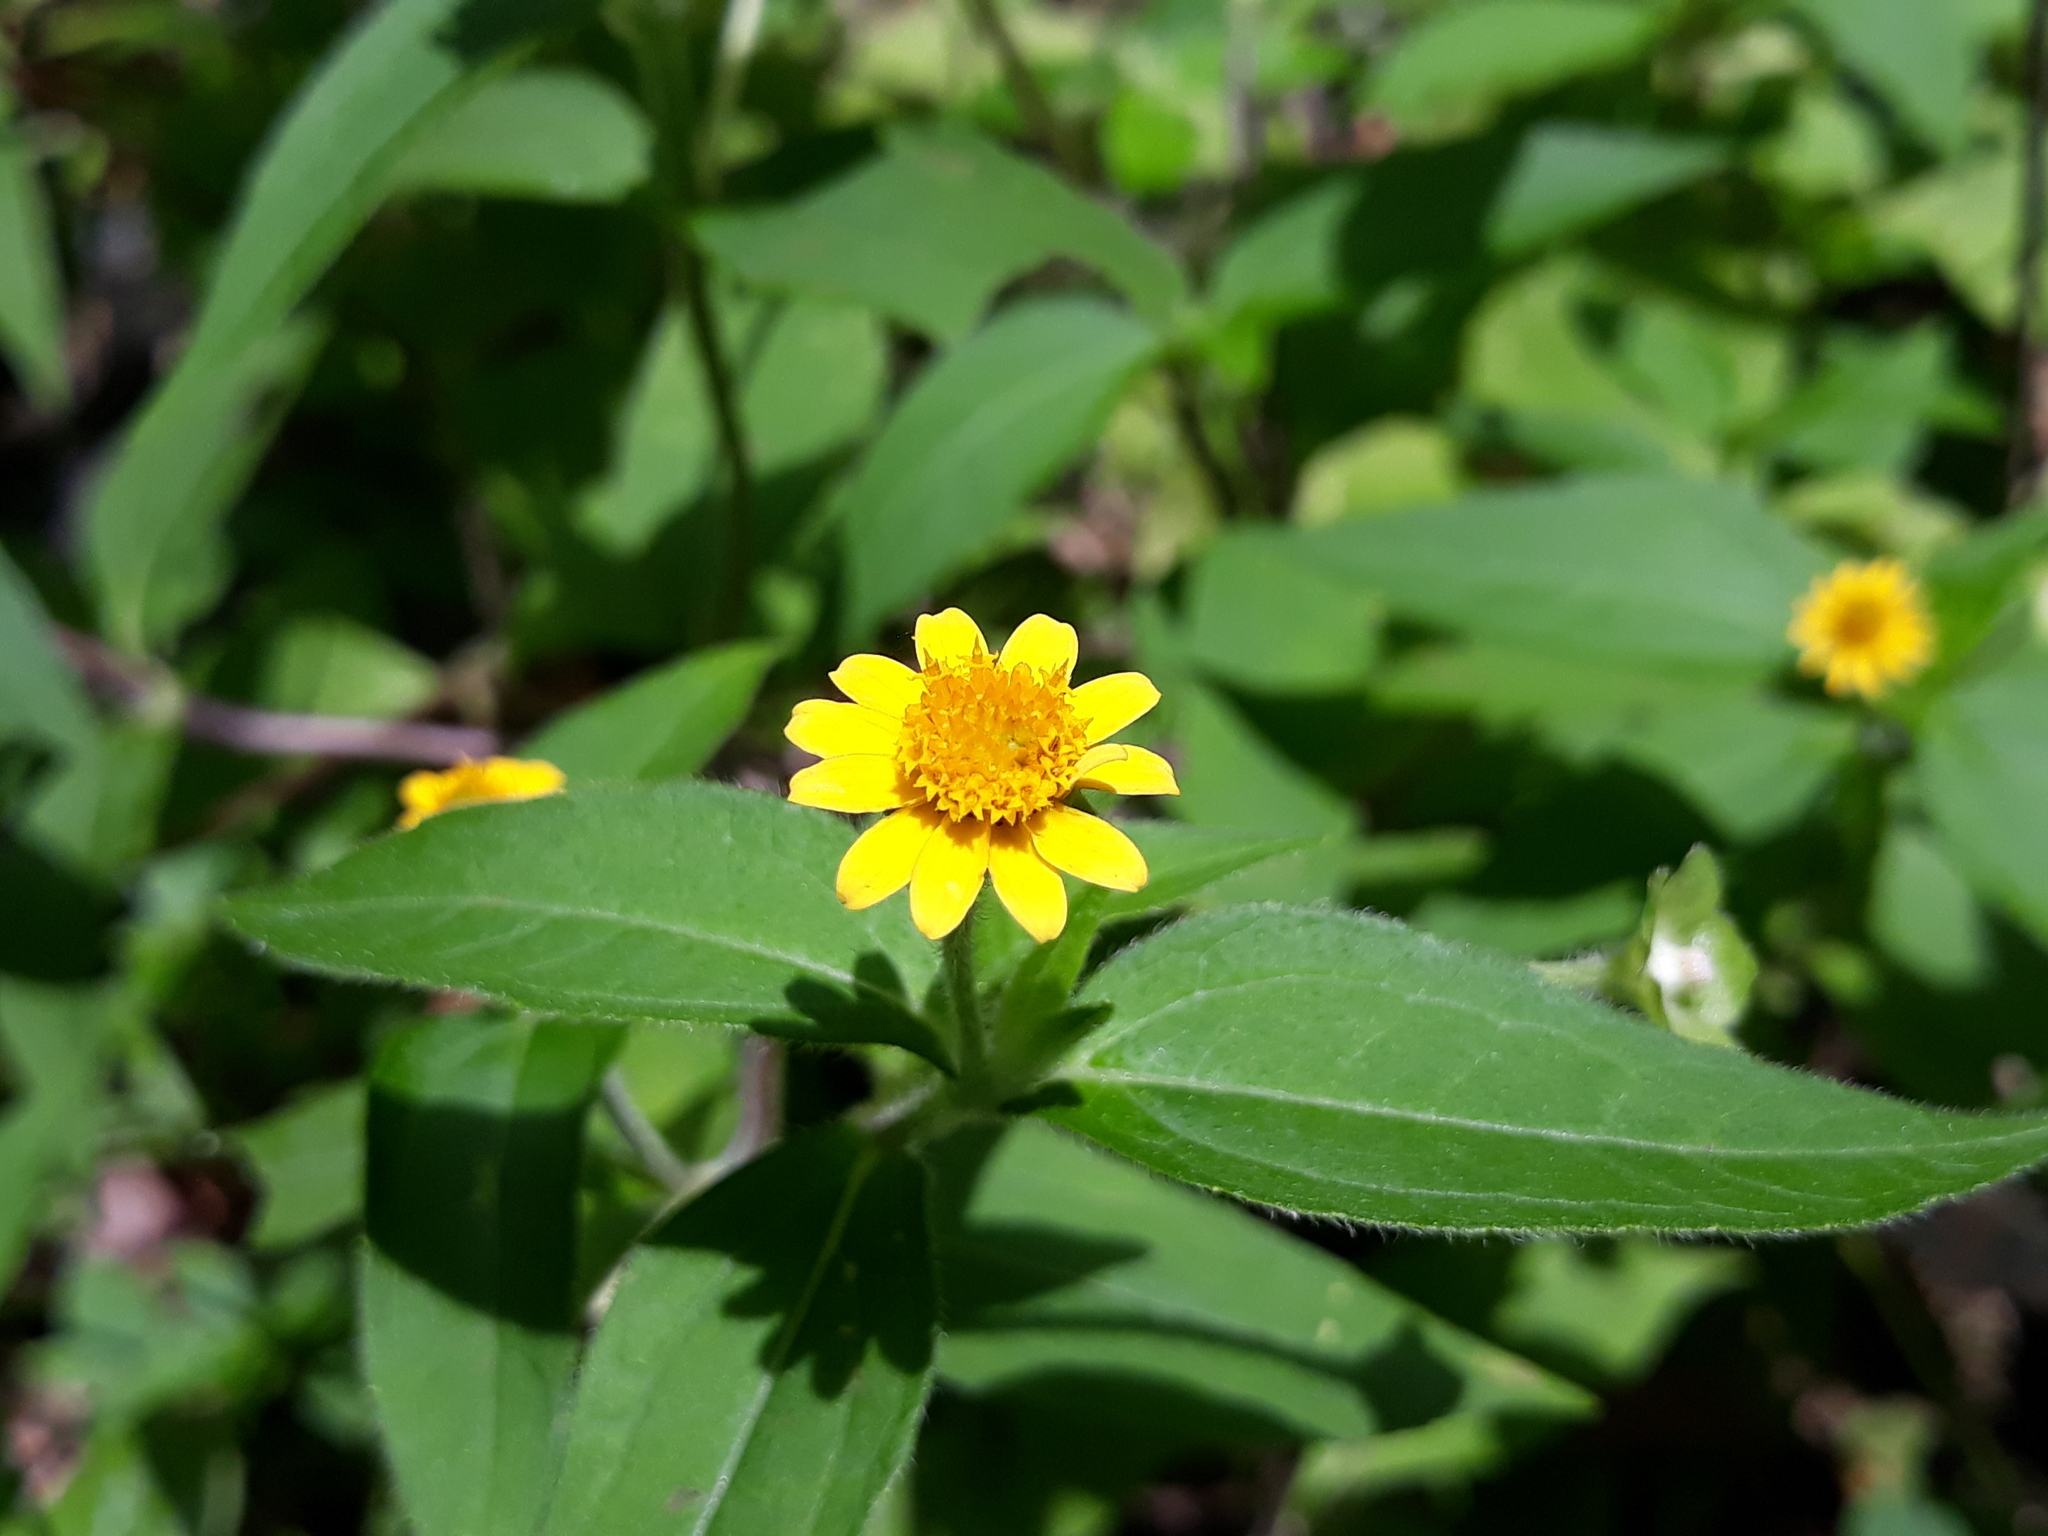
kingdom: Plantae
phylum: Tracheophyta
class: Magnoliopsida
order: Asterales
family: Asteraceae
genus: Melampodium
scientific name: Melampodium divaricatum
